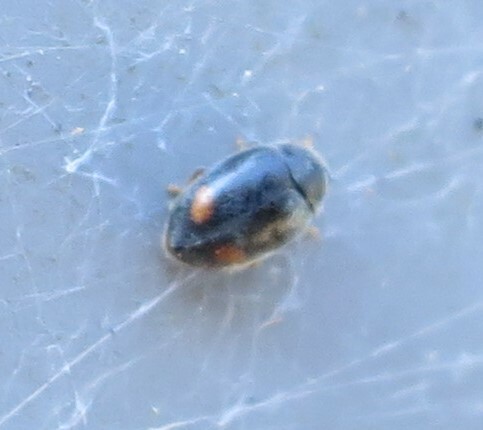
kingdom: Animalia
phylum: Arthropoda
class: Insecta
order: Coleoptera
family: Coccinellidae
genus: Nephus
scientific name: Nephus binaevatus
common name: Ladybird beetle
